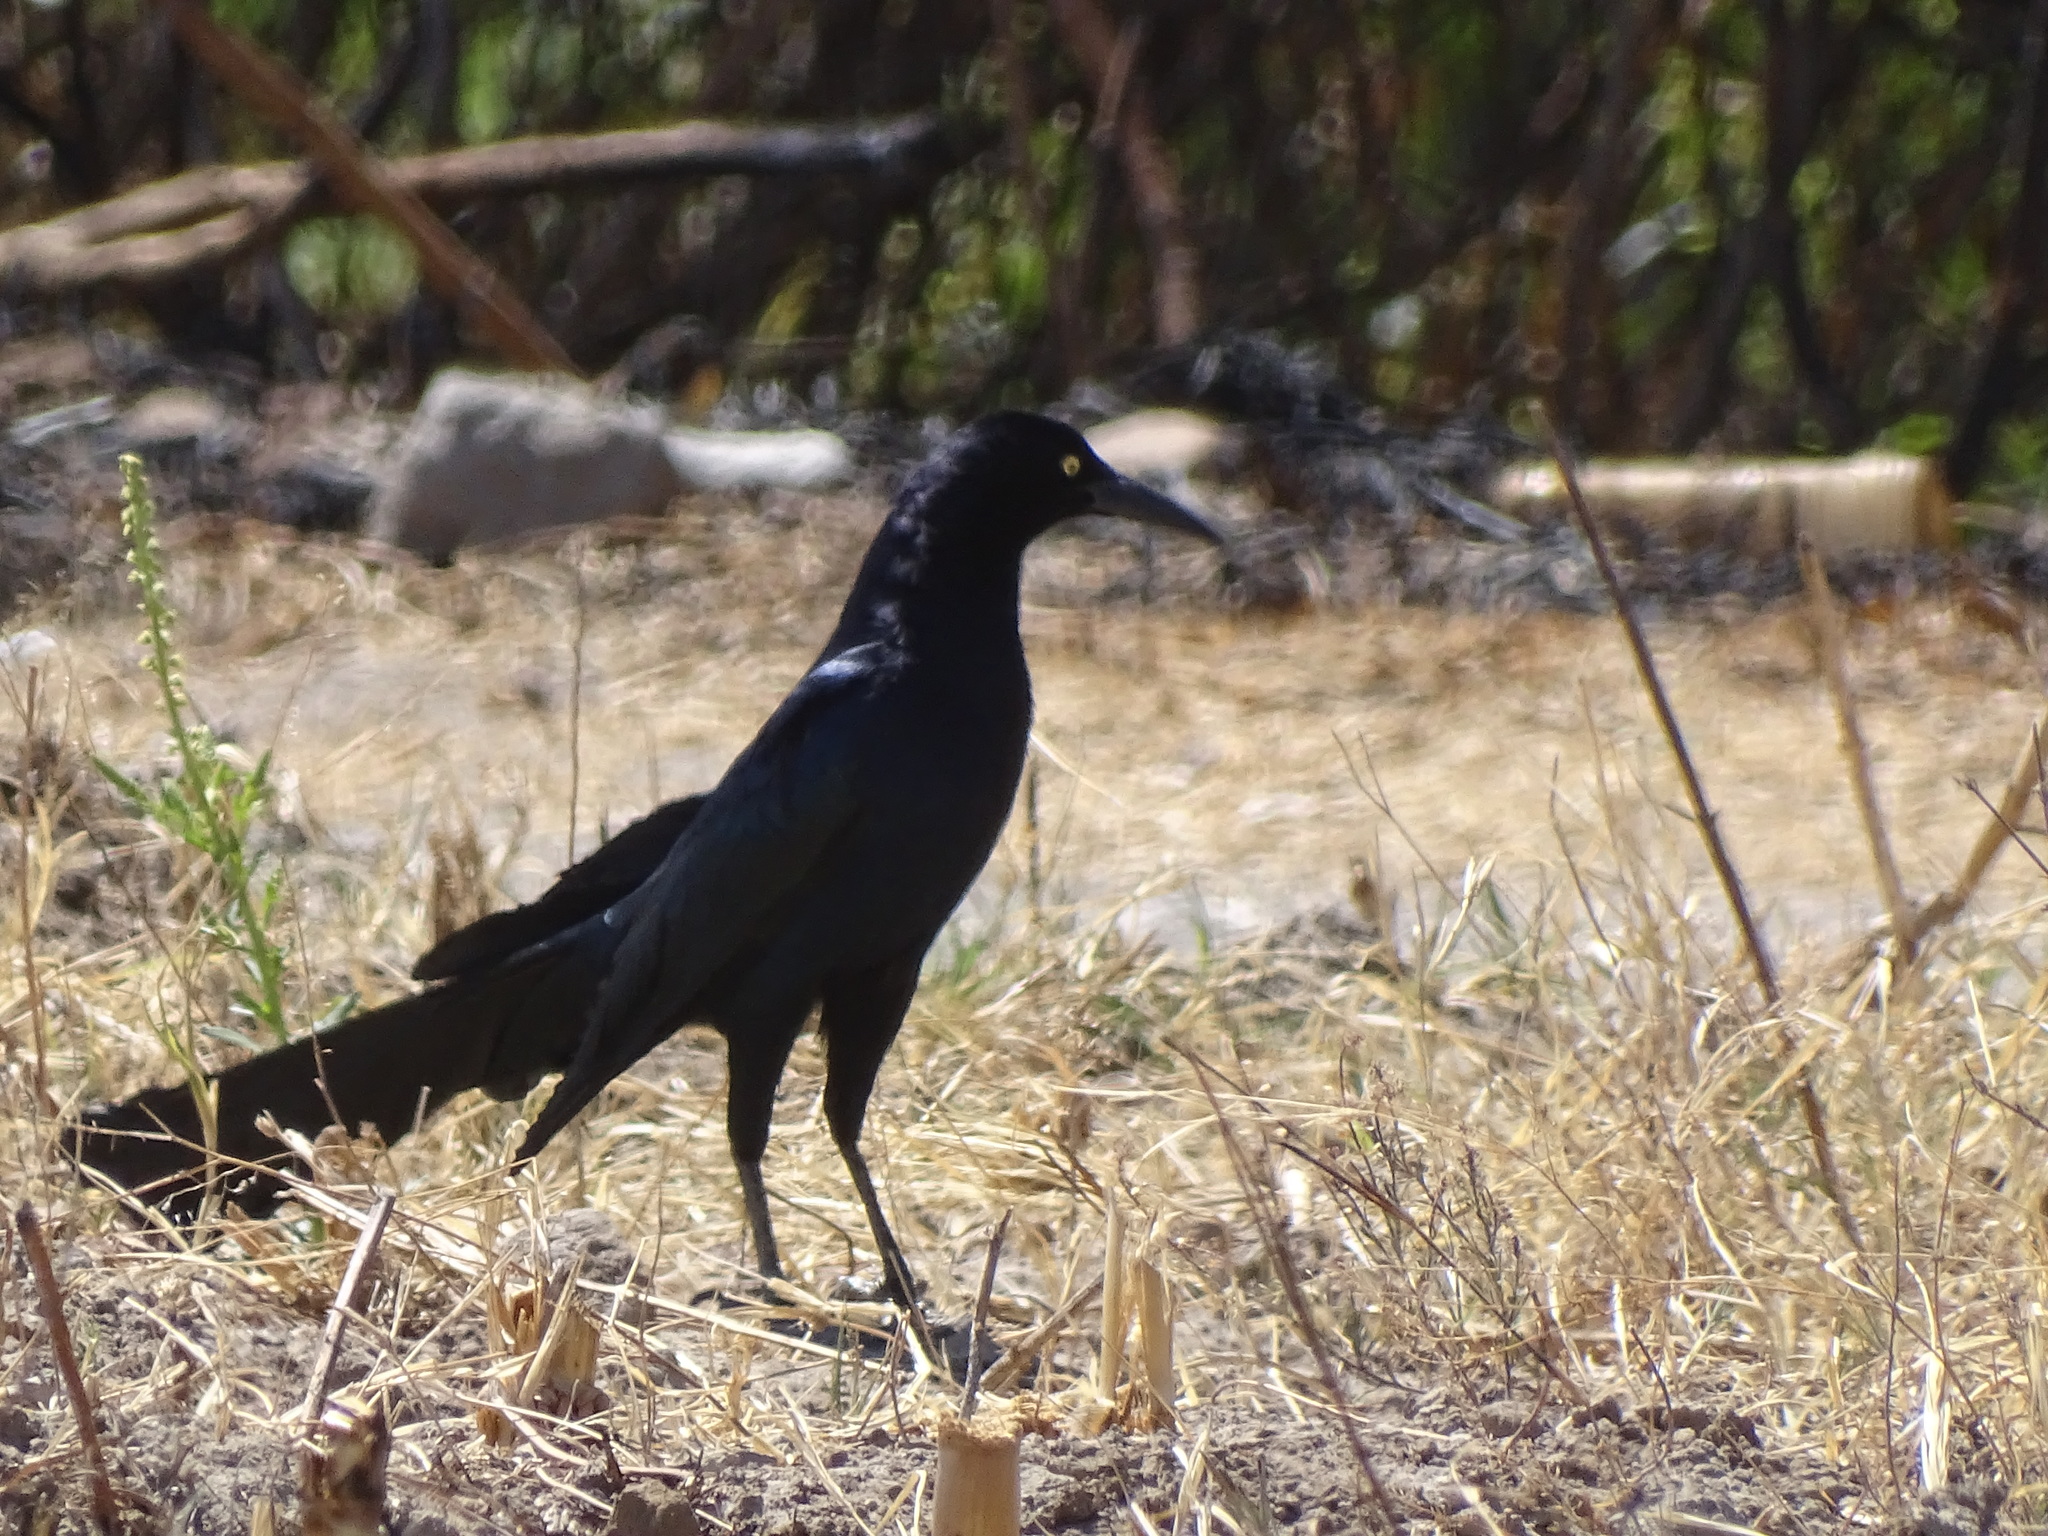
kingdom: Animalia
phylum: Chordata
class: Aves
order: Passeriformes
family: Icteridae
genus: Quiscalus
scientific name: Quiscalus mexicanus
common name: Great-tailed grackle
